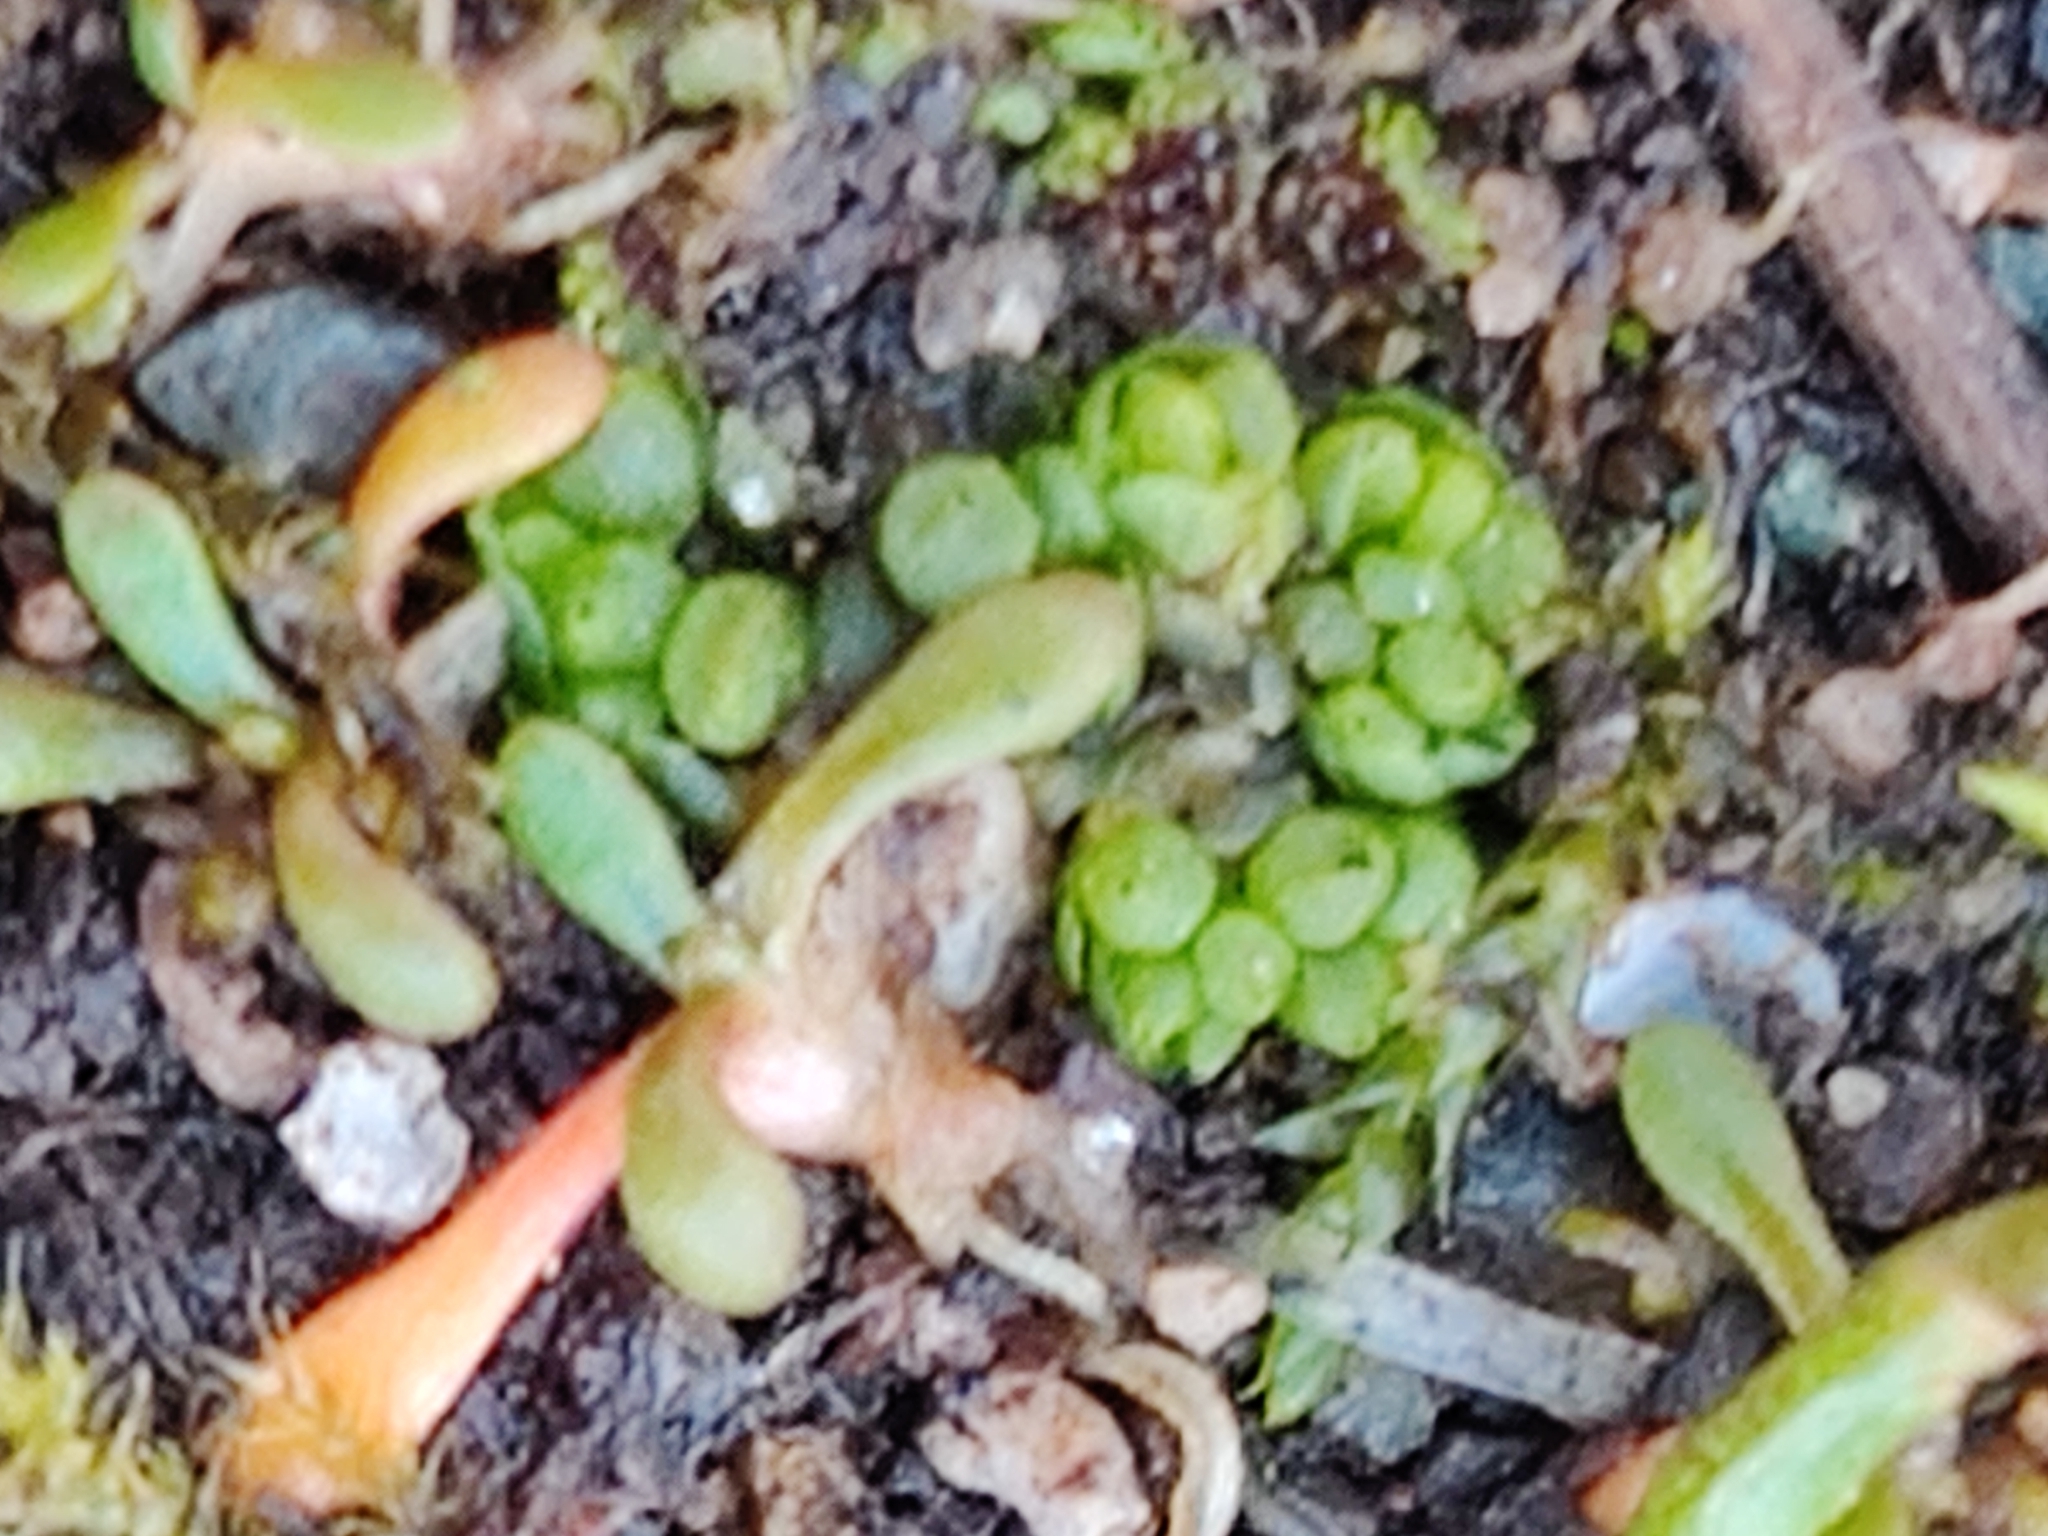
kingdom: Plantae
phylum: Marchantiophyta
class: Marchantiopsida
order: Sphaerocarpales
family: Sphaerocarpaceae
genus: Sphaerocarpos
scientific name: Sphaerocarpos texanus
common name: Texas balloonwort
